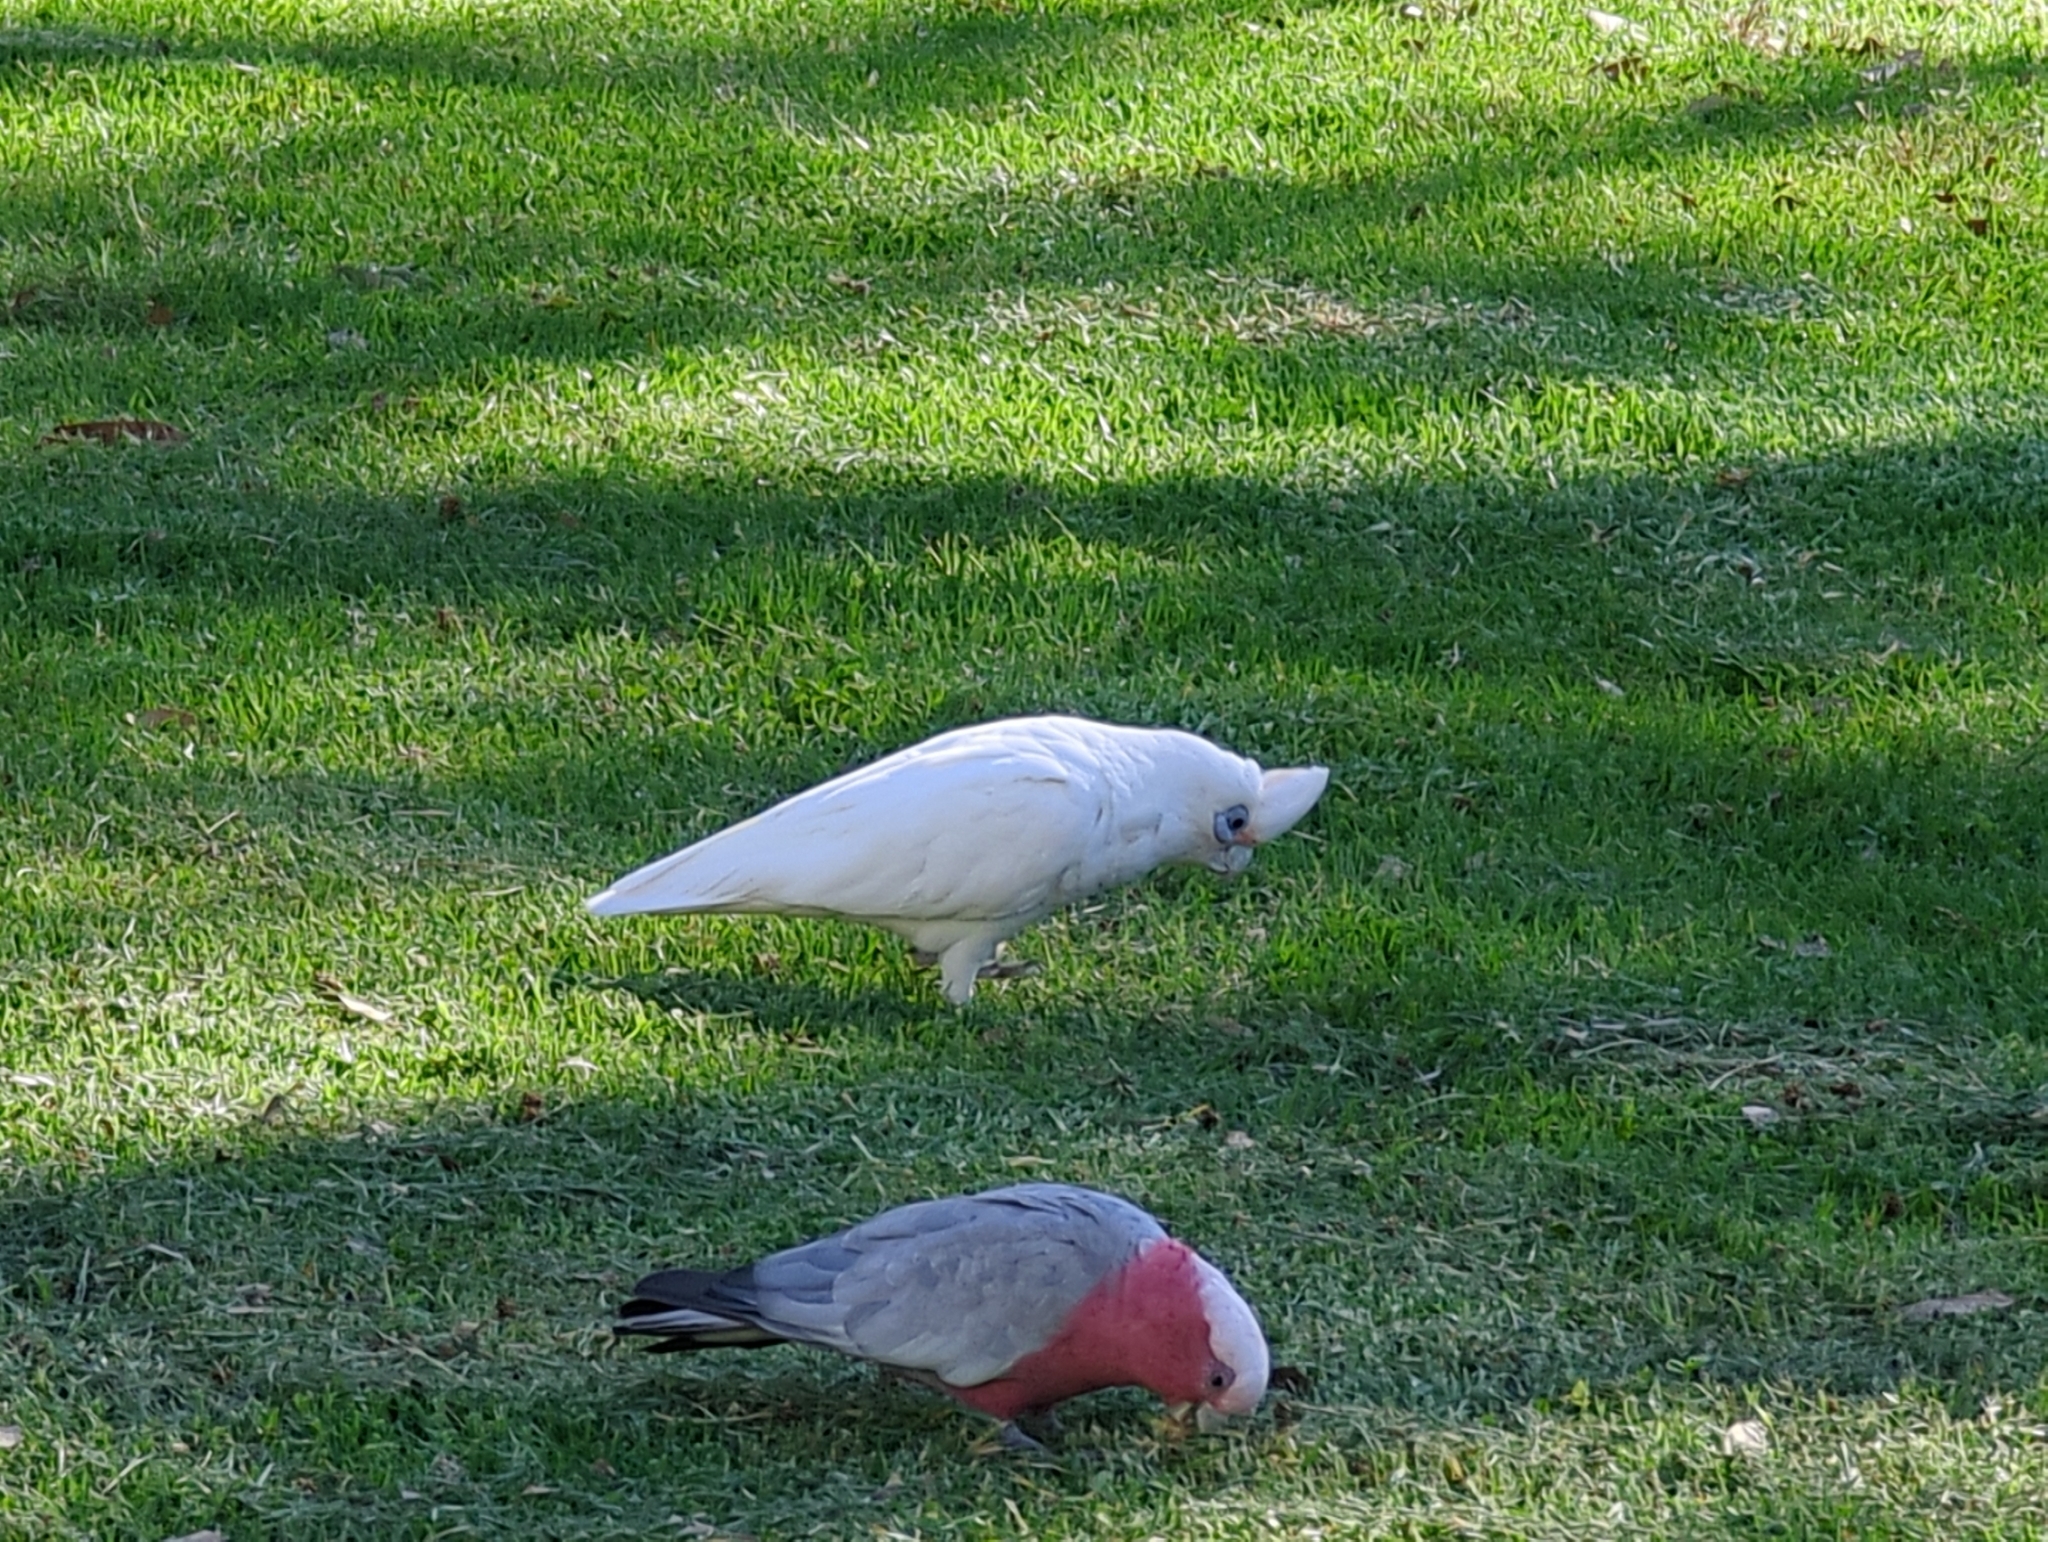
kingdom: Animalia
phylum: Chordata
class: Aves
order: Psittaciformes
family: Psittacidae
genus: Cacatua
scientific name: Cacatua sanguinea
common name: Little corella
